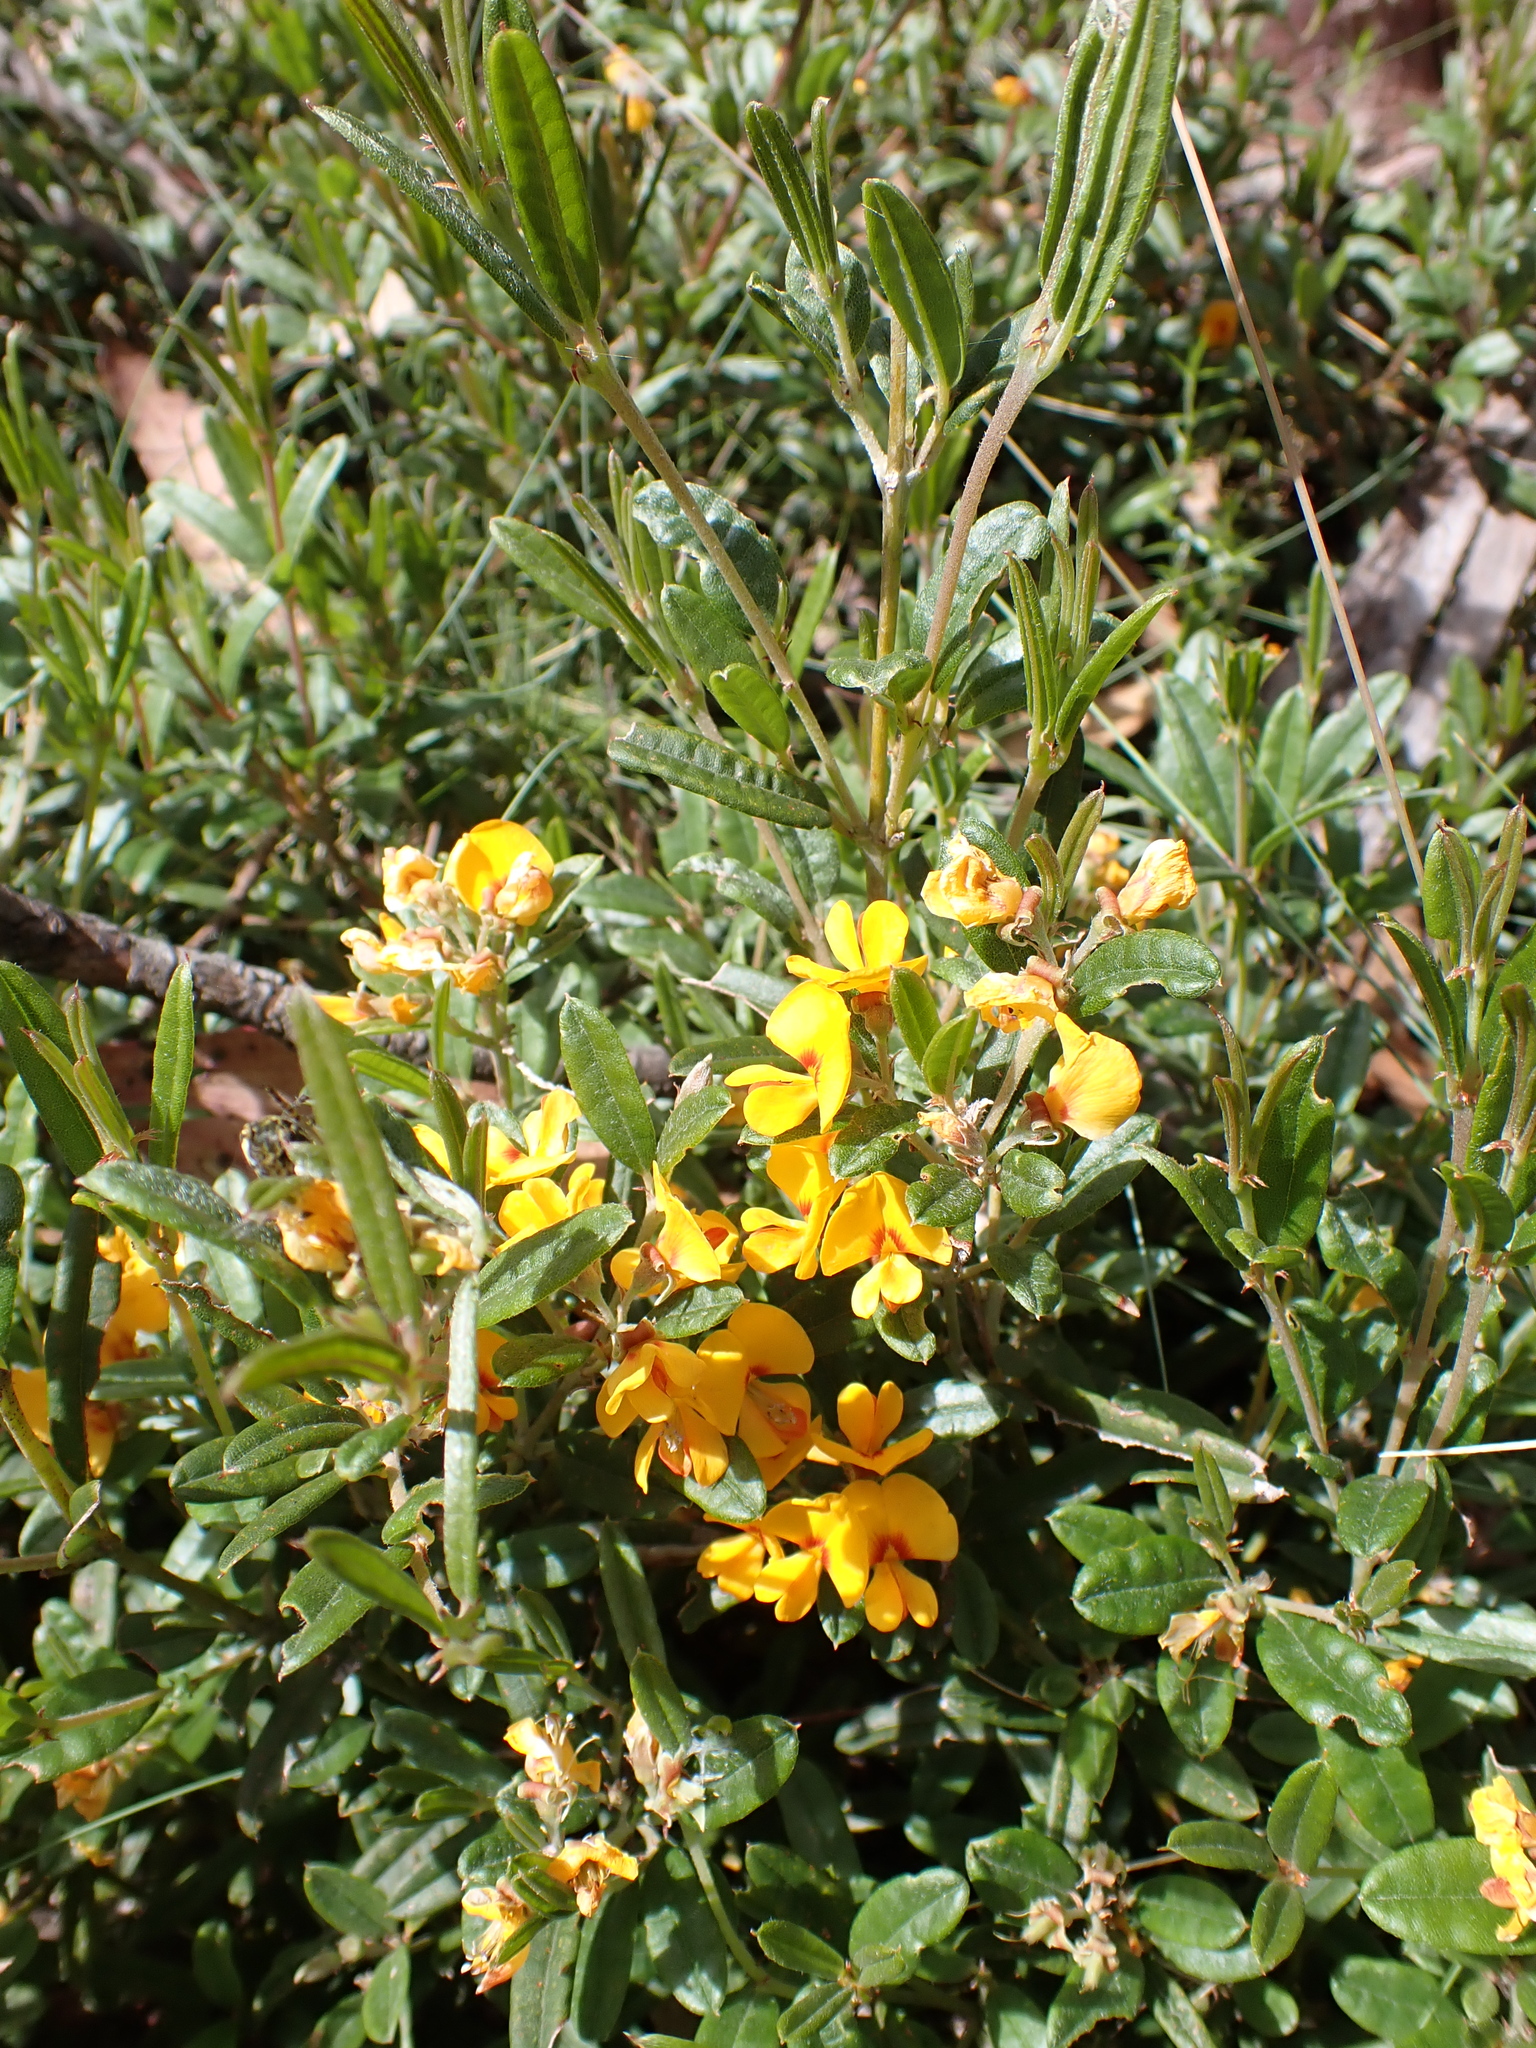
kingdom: Plantae
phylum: Tracheophyta
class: Magnoliopsida
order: Fabales
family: Fabaceae
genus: Podolobium
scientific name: Podolobium alpestre
